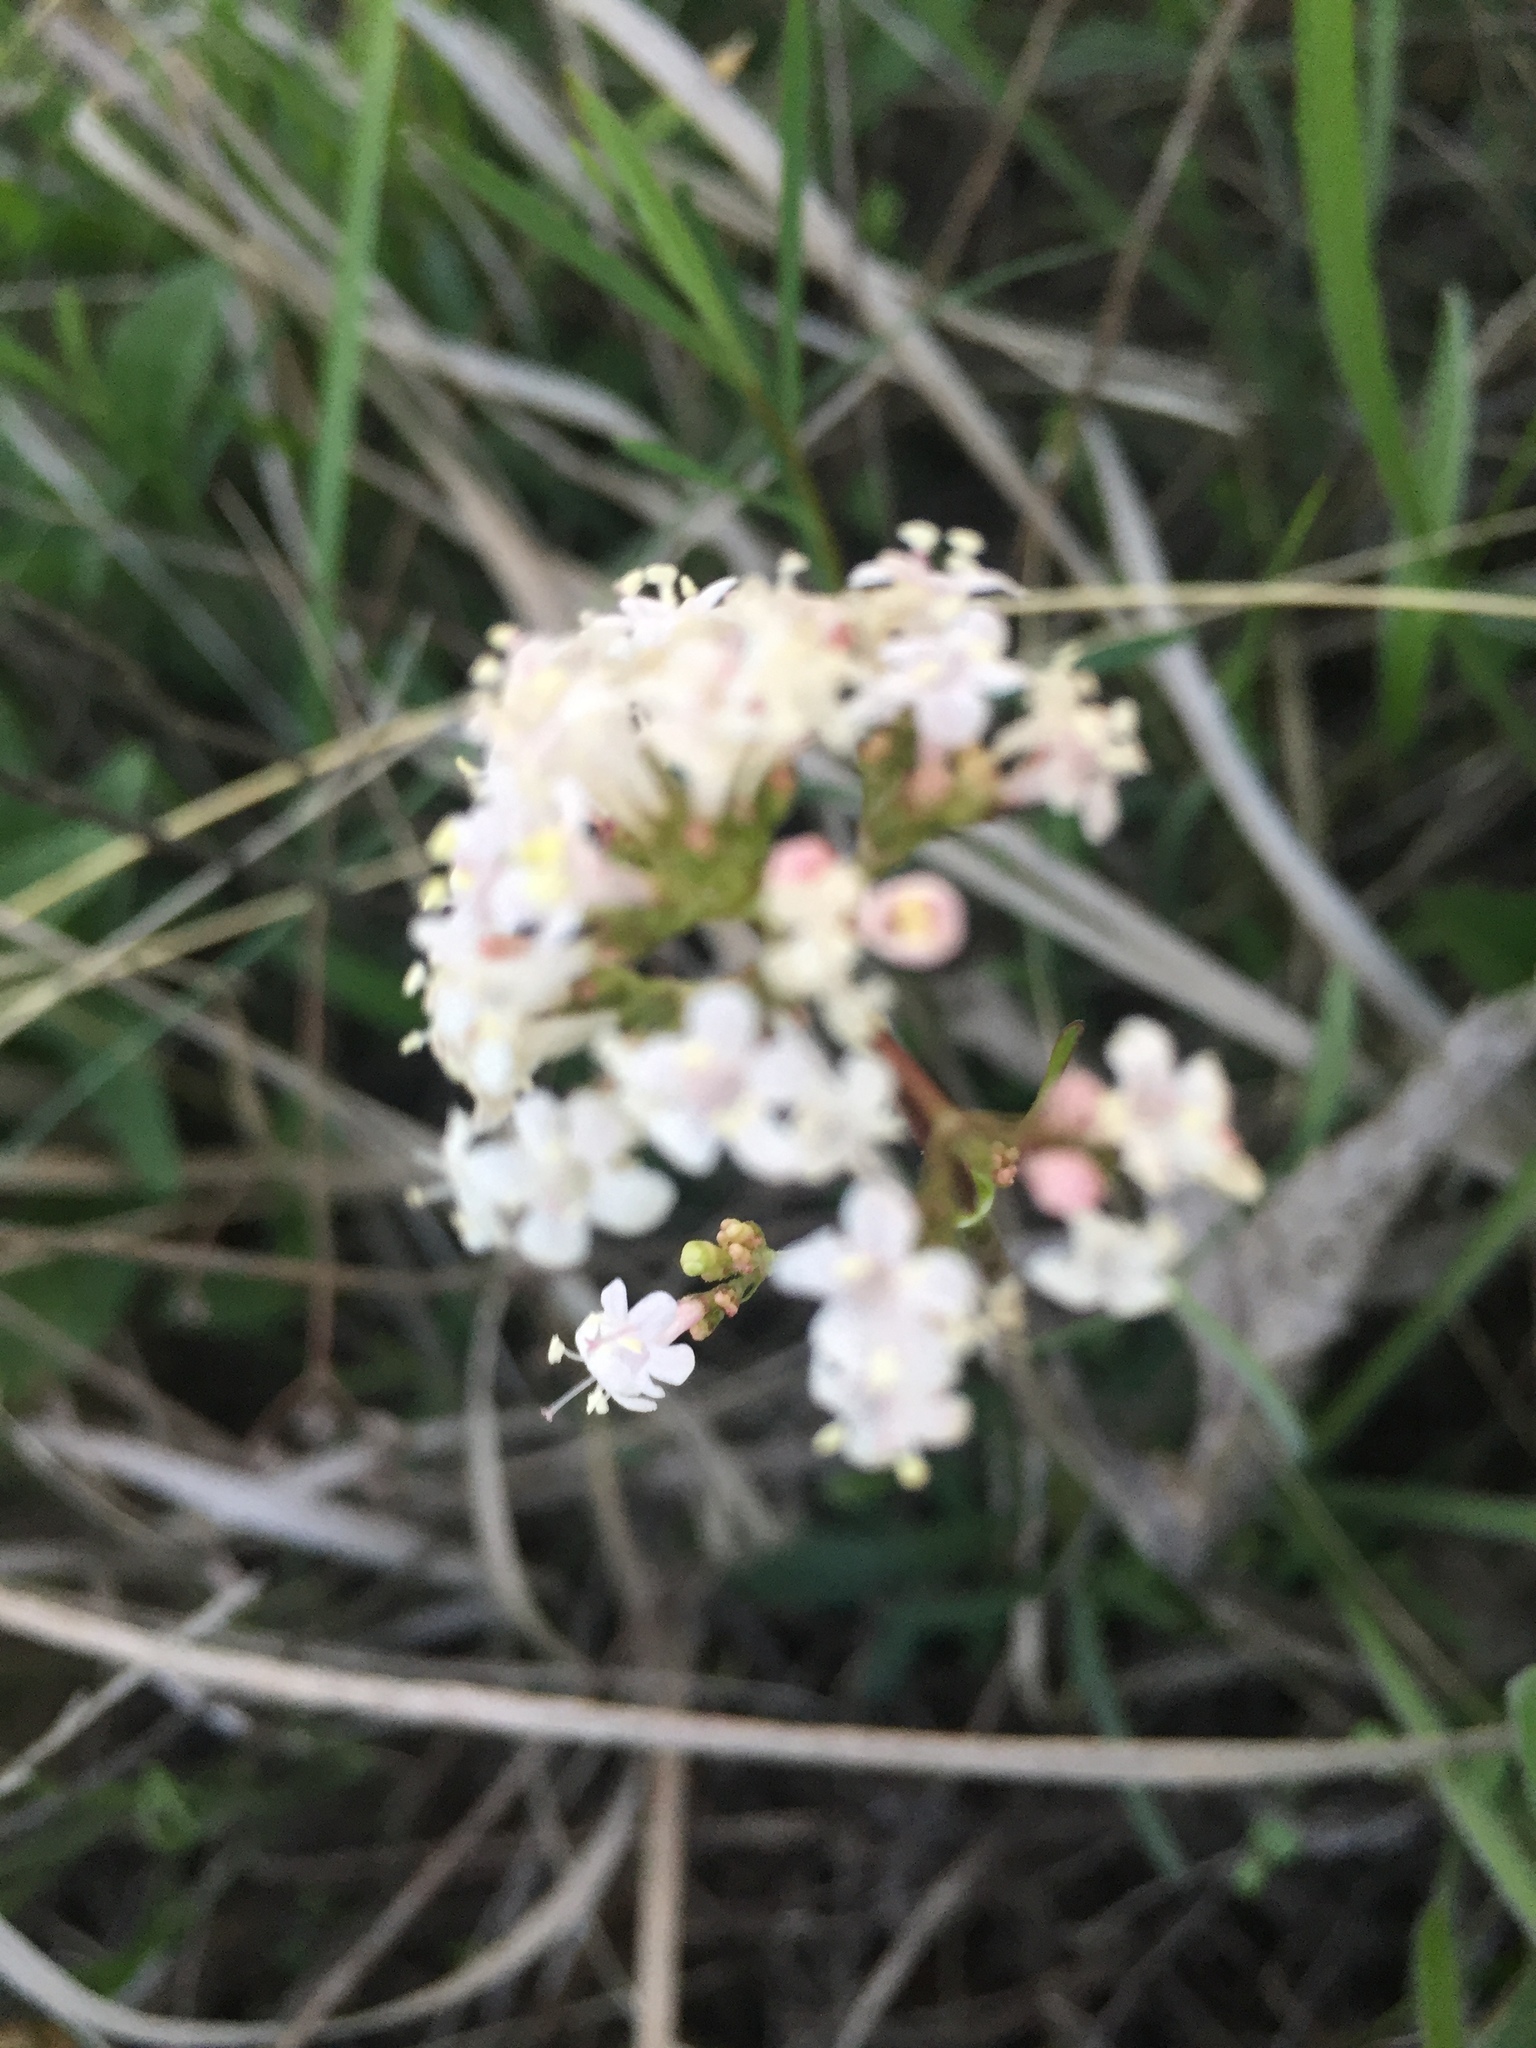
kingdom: Plantae
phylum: Tracheophyta
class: Magnoliopsida
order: Dipsacales
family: Caprifoliaceae
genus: Valeriana
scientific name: Valeriana tuberosa
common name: Tuberous valerian
